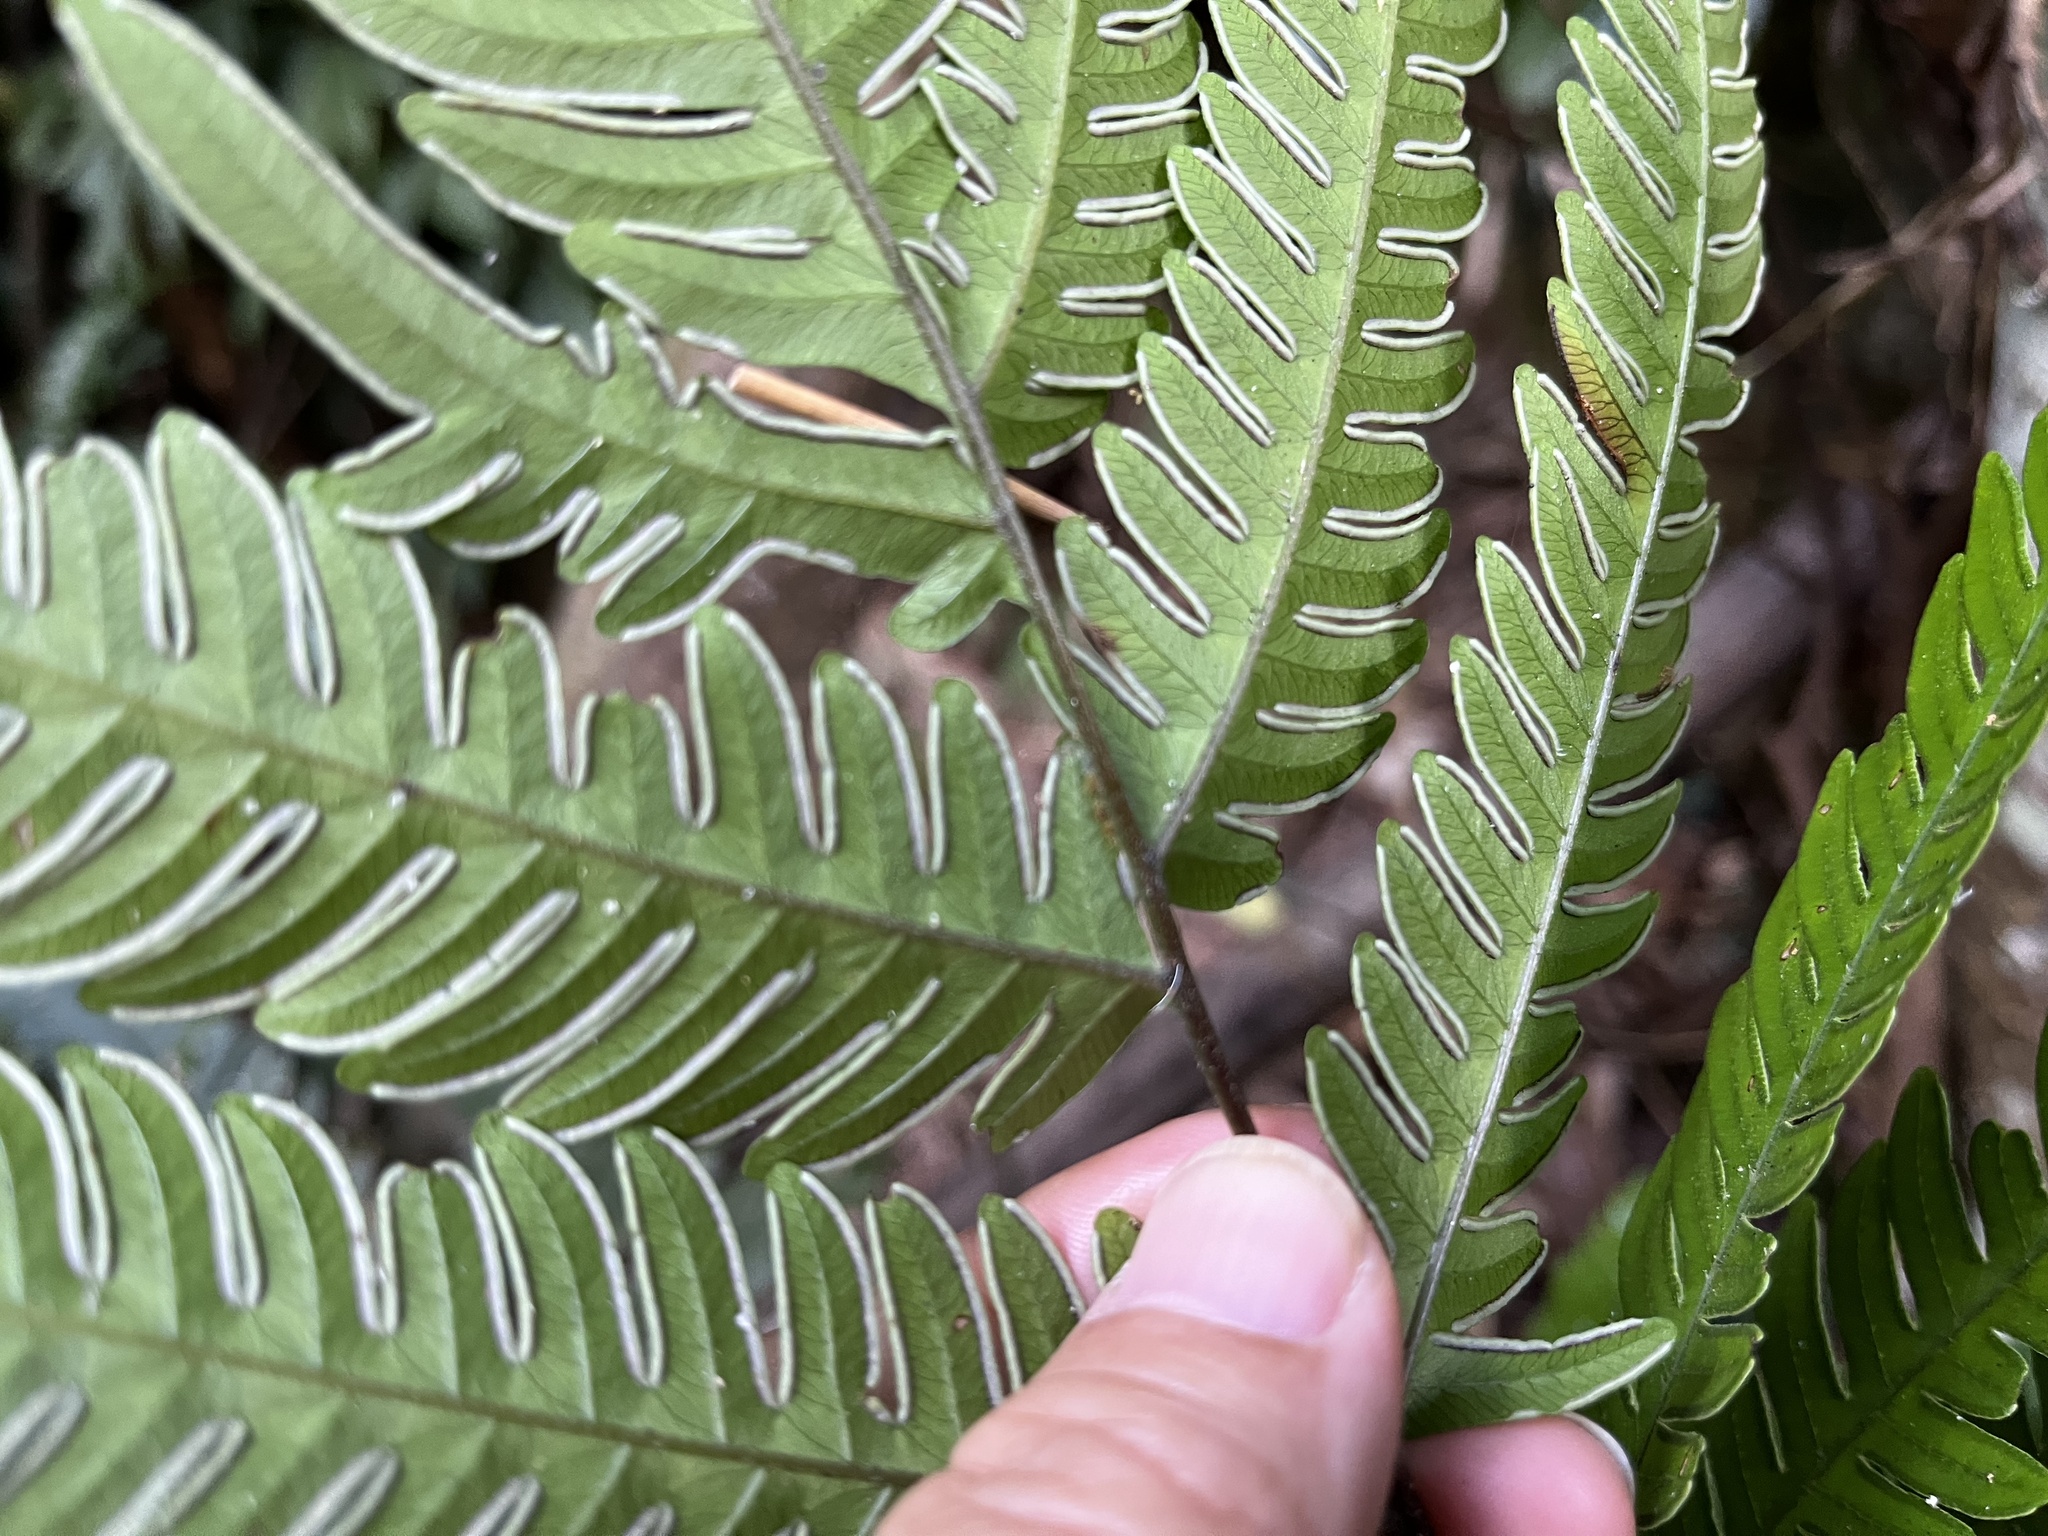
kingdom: Plantae
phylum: Tracheophyta
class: Polypodiopsida
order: Polypodiales
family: Pteridaceae
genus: Pteris
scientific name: Pteris arisanensis
